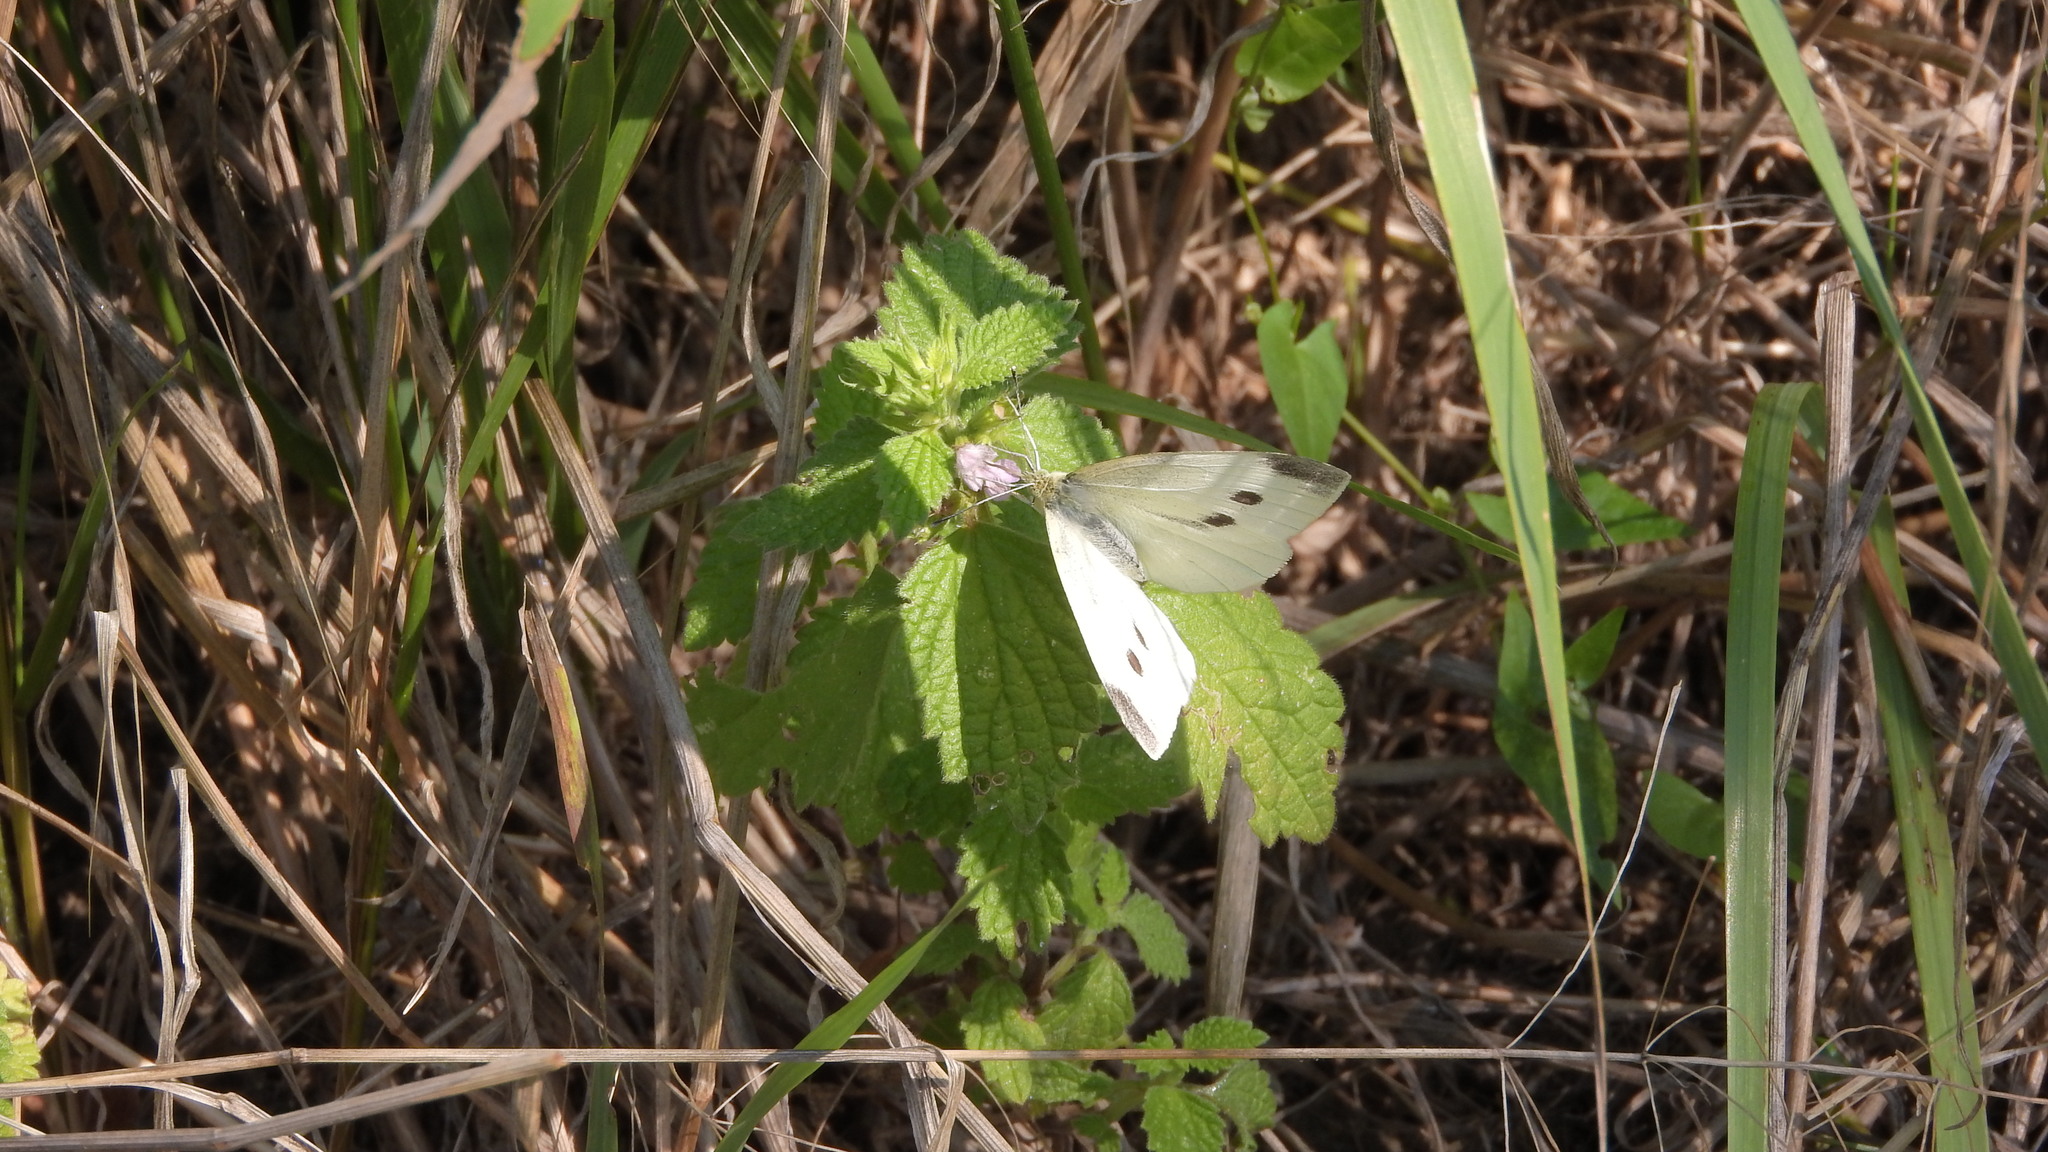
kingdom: Animalia
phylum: Arthropoda
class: Insecta
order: Lepidoptera
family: Pieridae
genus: Pieris
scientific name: Pieris rapae
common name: Small white
